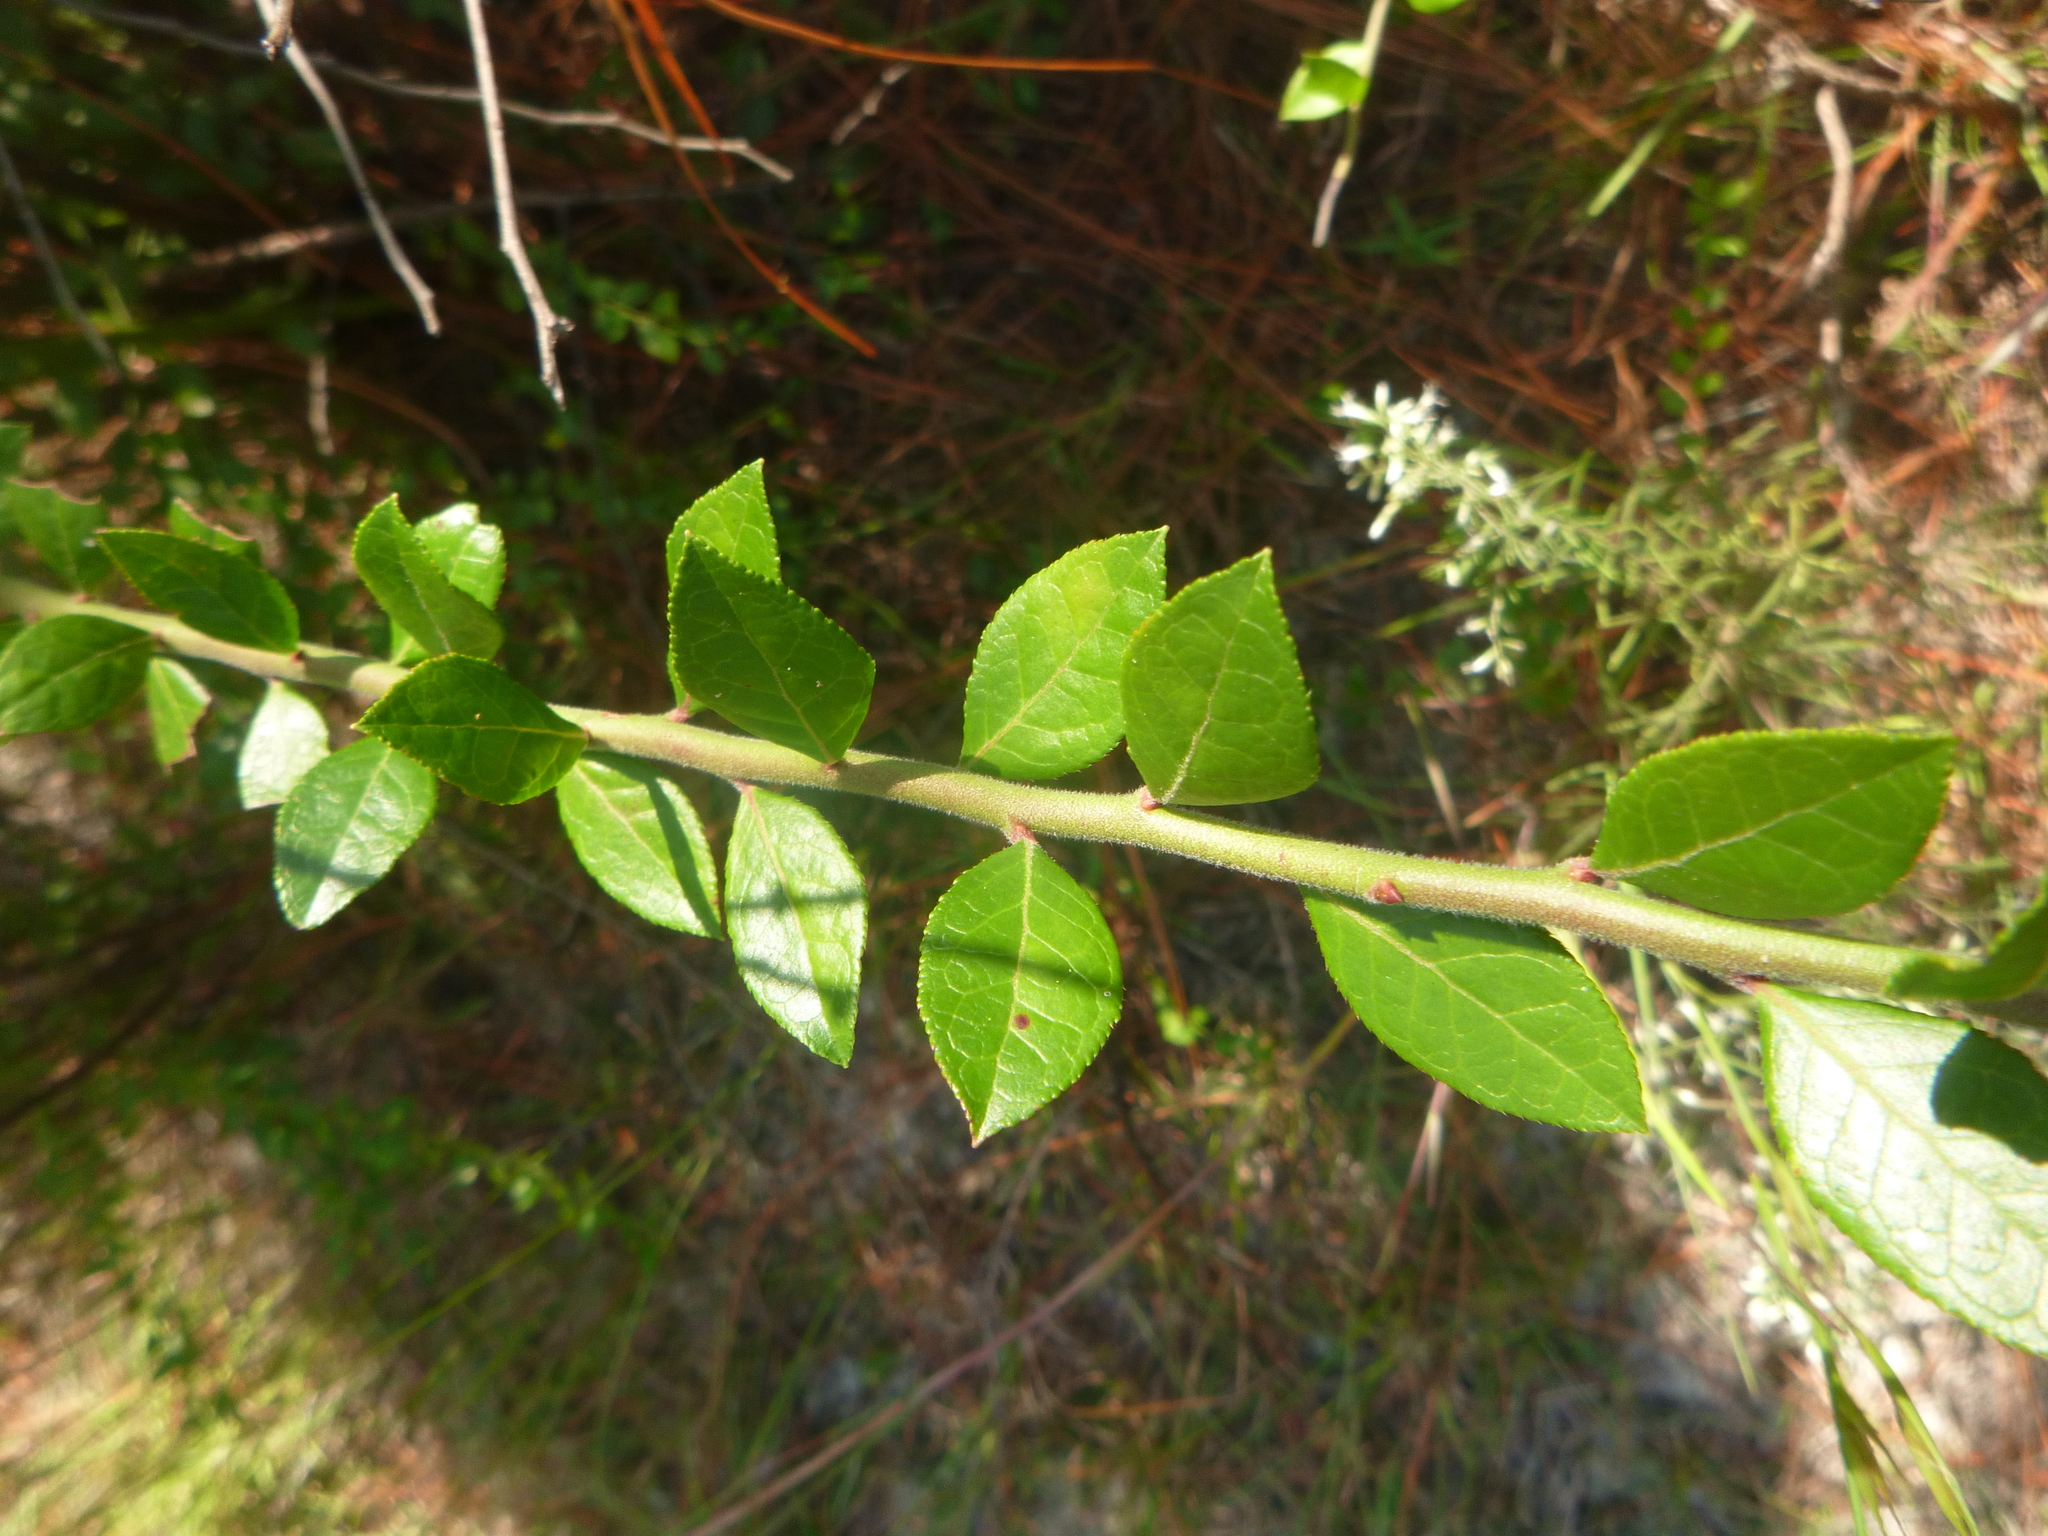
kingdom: Plantae
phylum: Tracheophyta
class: Magnoliopsida
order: Ericales
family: Ericaceae
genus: Vaccinium
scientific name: Vaccinium corymbosum
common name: Blueberry
